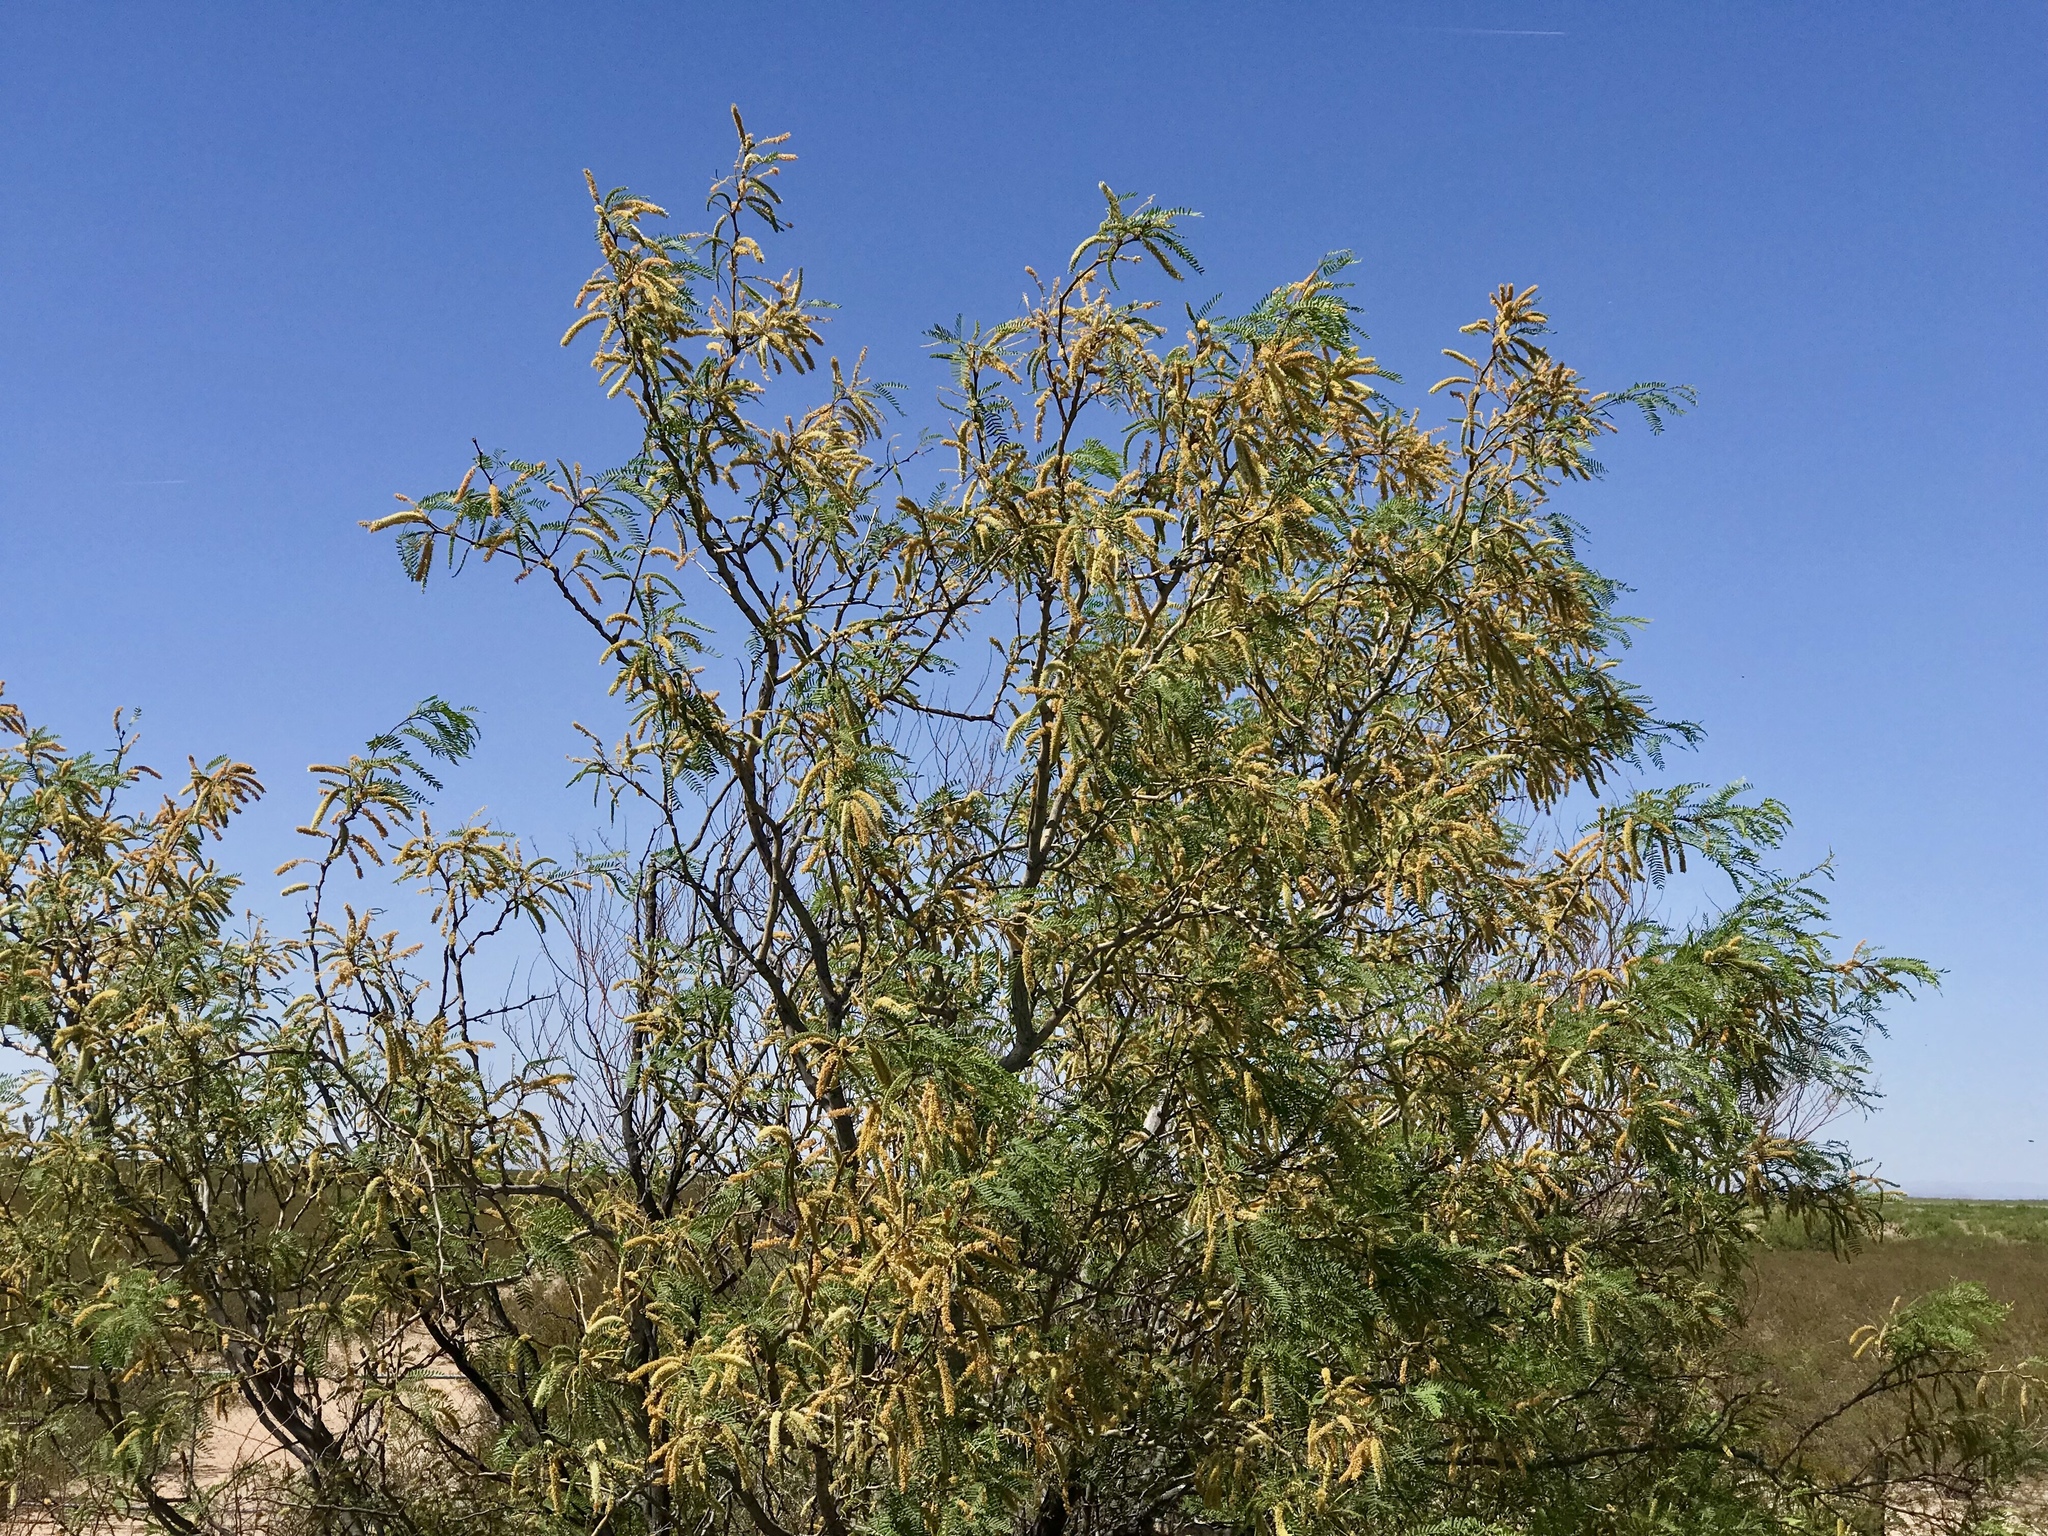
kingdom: Plantae
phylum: Tracheophyta
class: Magnoliopsida
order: Fabales
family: Fabaceae
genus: Prosopis
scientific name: Prosopis glandulosa
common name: Honey mesquite
